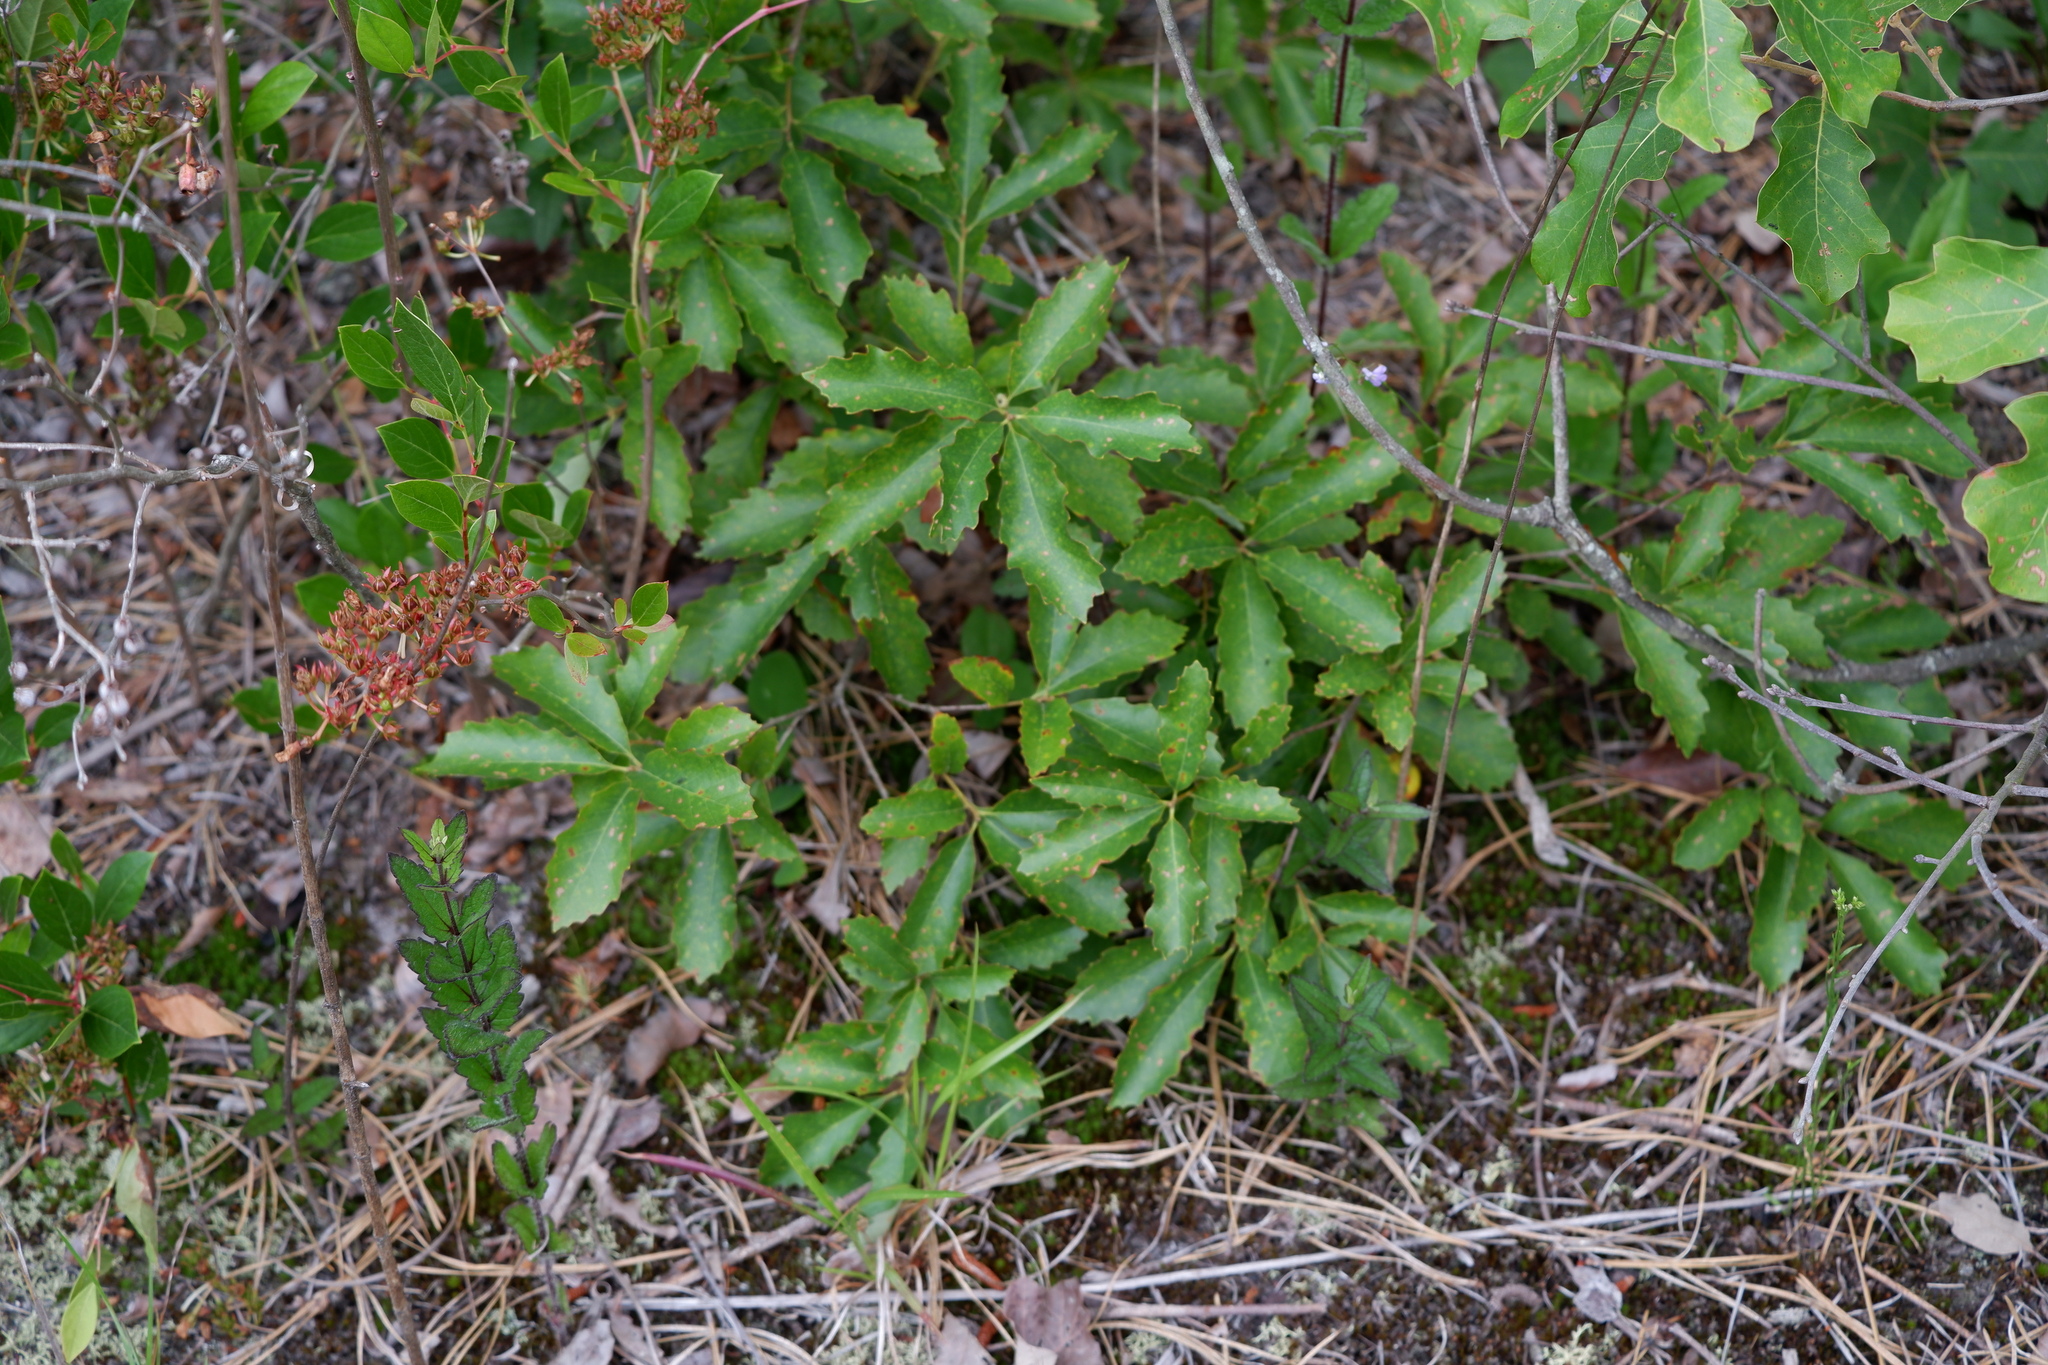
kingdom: Plantae
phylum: Tracheophyta
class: Magnoliopsida
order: Fagales
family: Fagaceae
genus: Quercus
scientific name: Quercus prinoides
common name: Dwarf chinkapin oak
